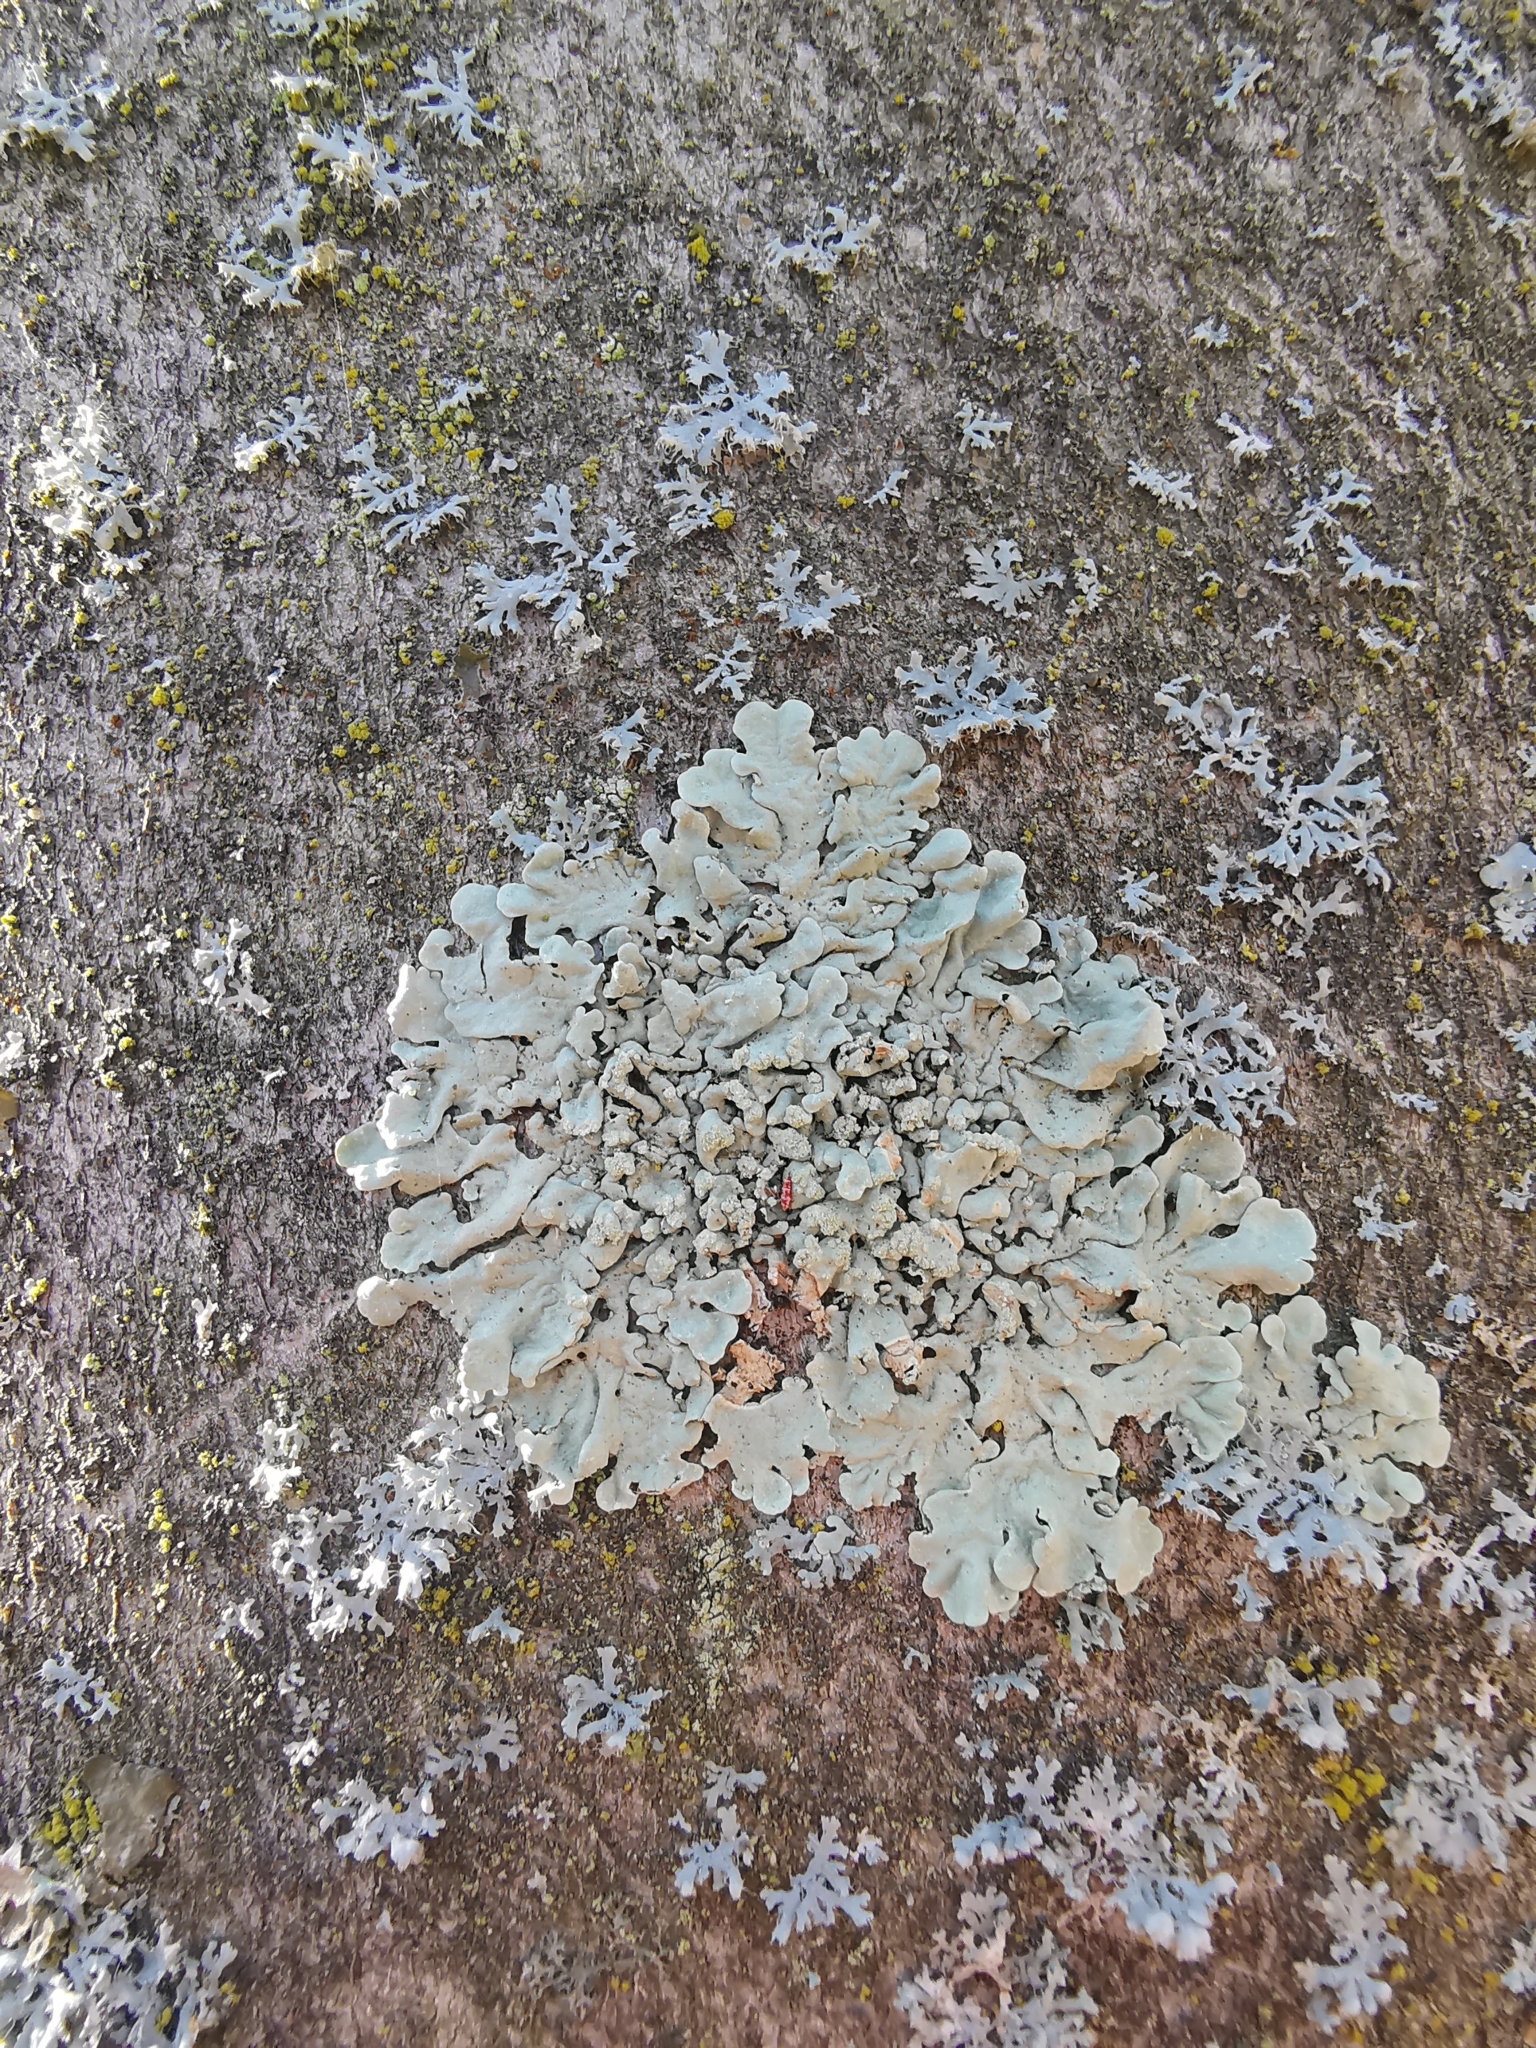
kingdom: Fungi
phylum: Ascomycota
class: Lecanoromycetes
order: Lecanorales
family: Parmeliaceae
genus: Flavoparmelia
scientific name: Flavoparmelia caperata
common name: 40-mile per hour lichen
